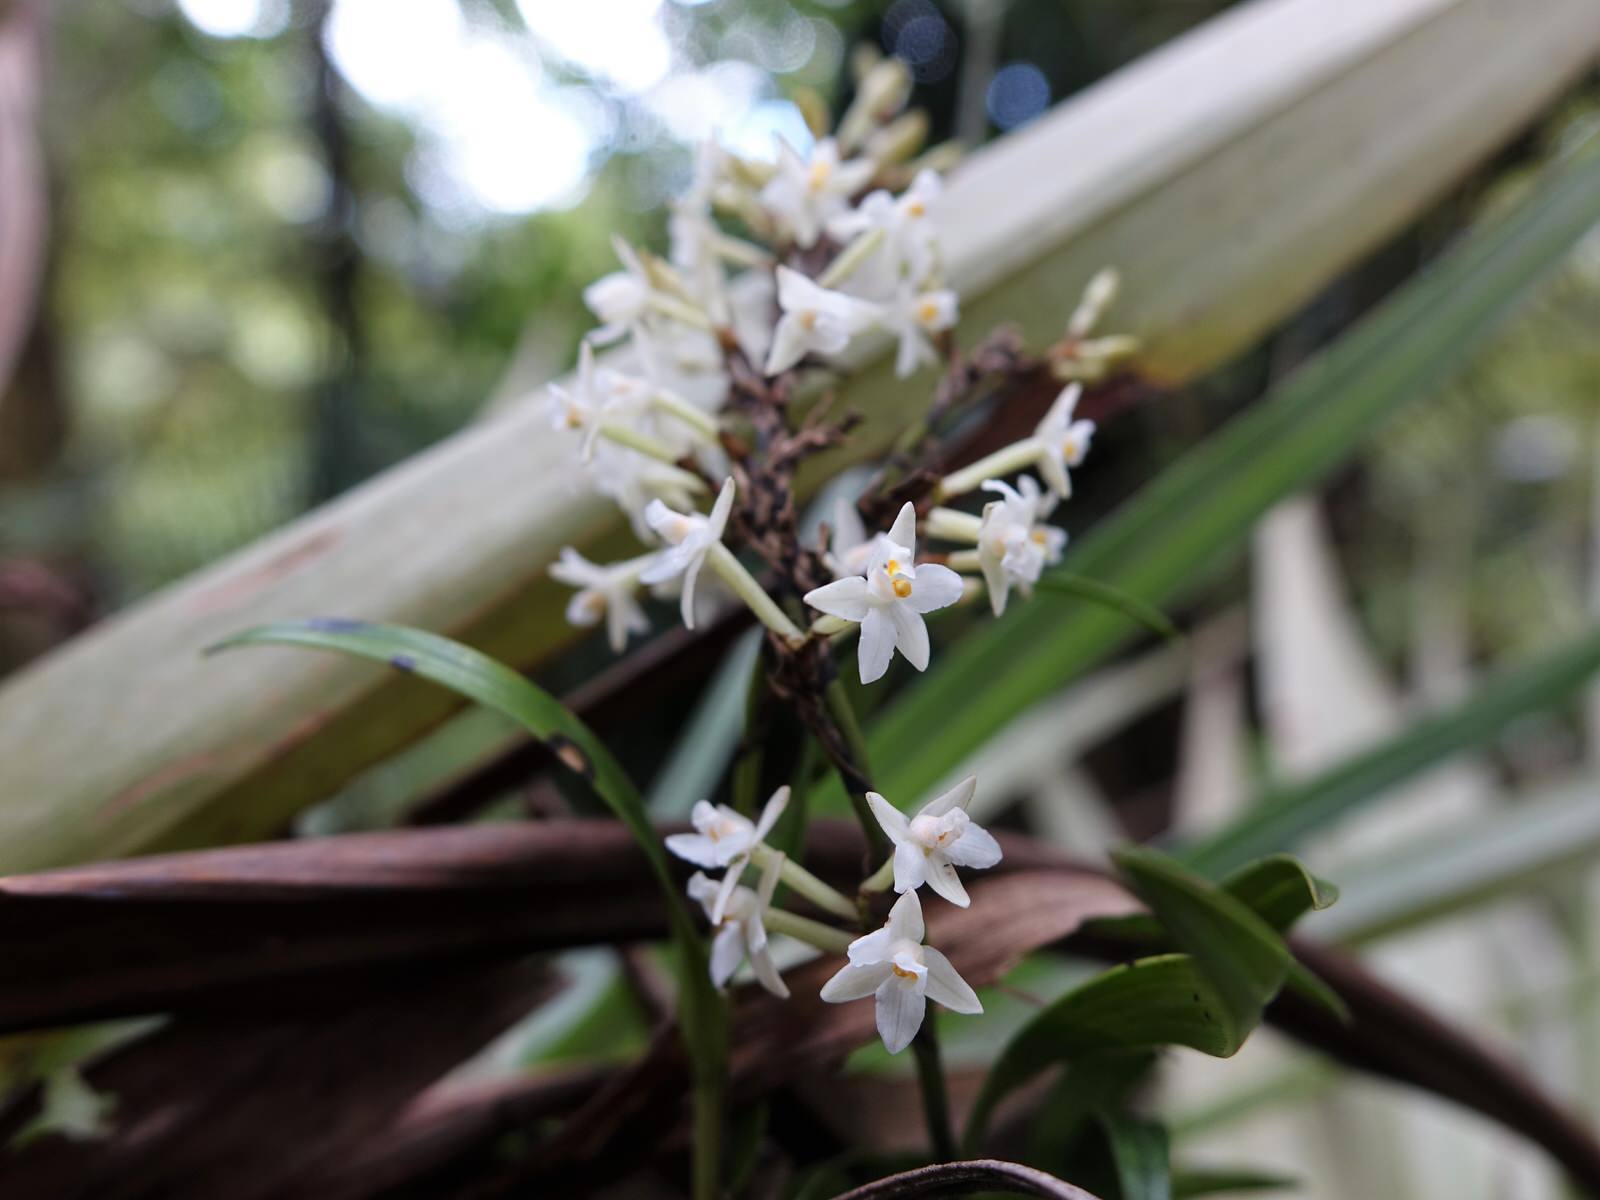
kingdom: Plantae
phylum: Tracheophyta
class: Liliopsida
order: Asparagales
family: Orchidaceae
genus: Earina
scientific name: Earina autumnalis
